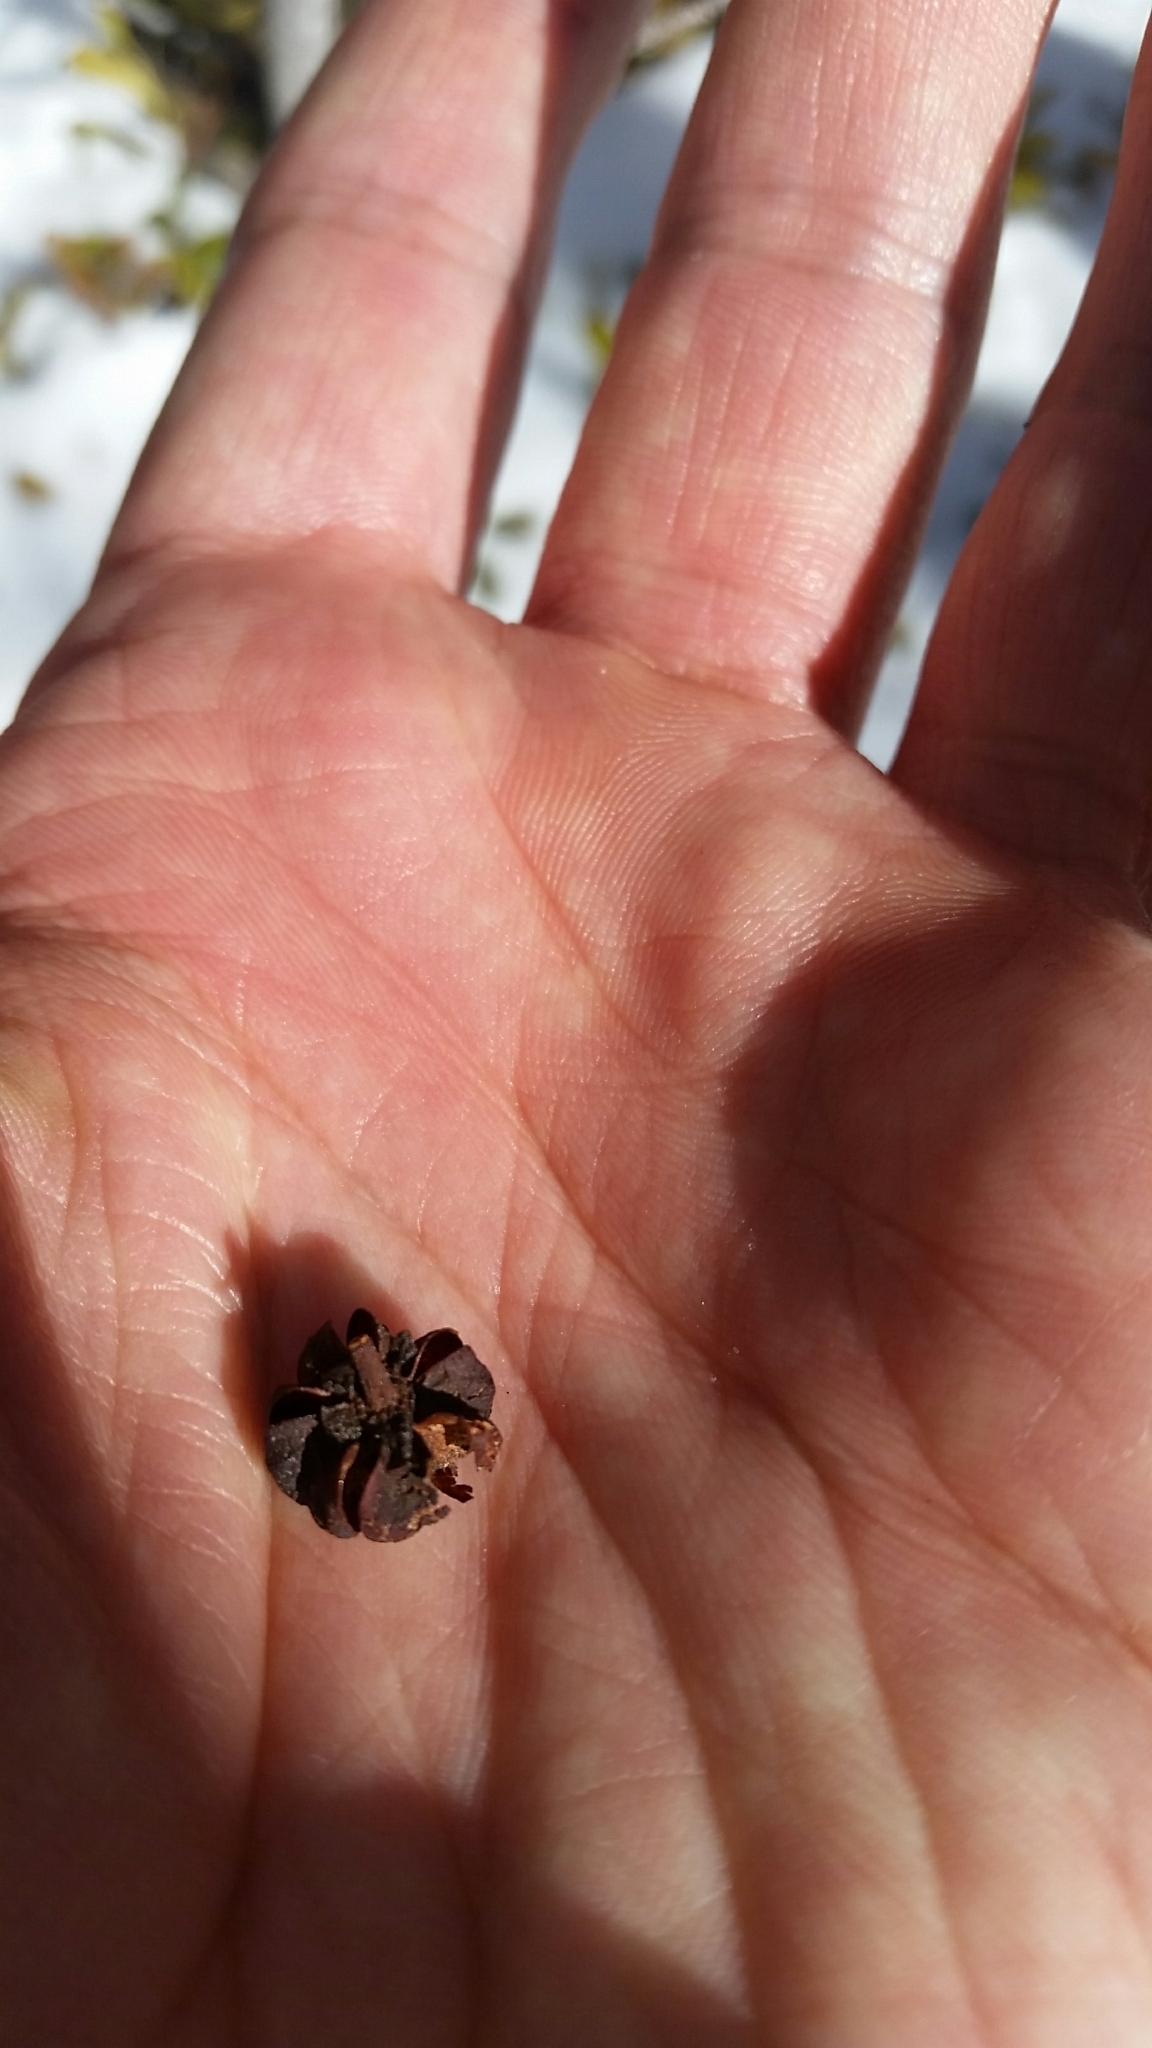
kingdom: Plantae
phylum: Tracheophyta
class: Magnoliopsida
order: Ericales
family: Ericaceae
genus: Pterospora
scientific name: Pterospora andromedea
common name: Giant bird's-nest
